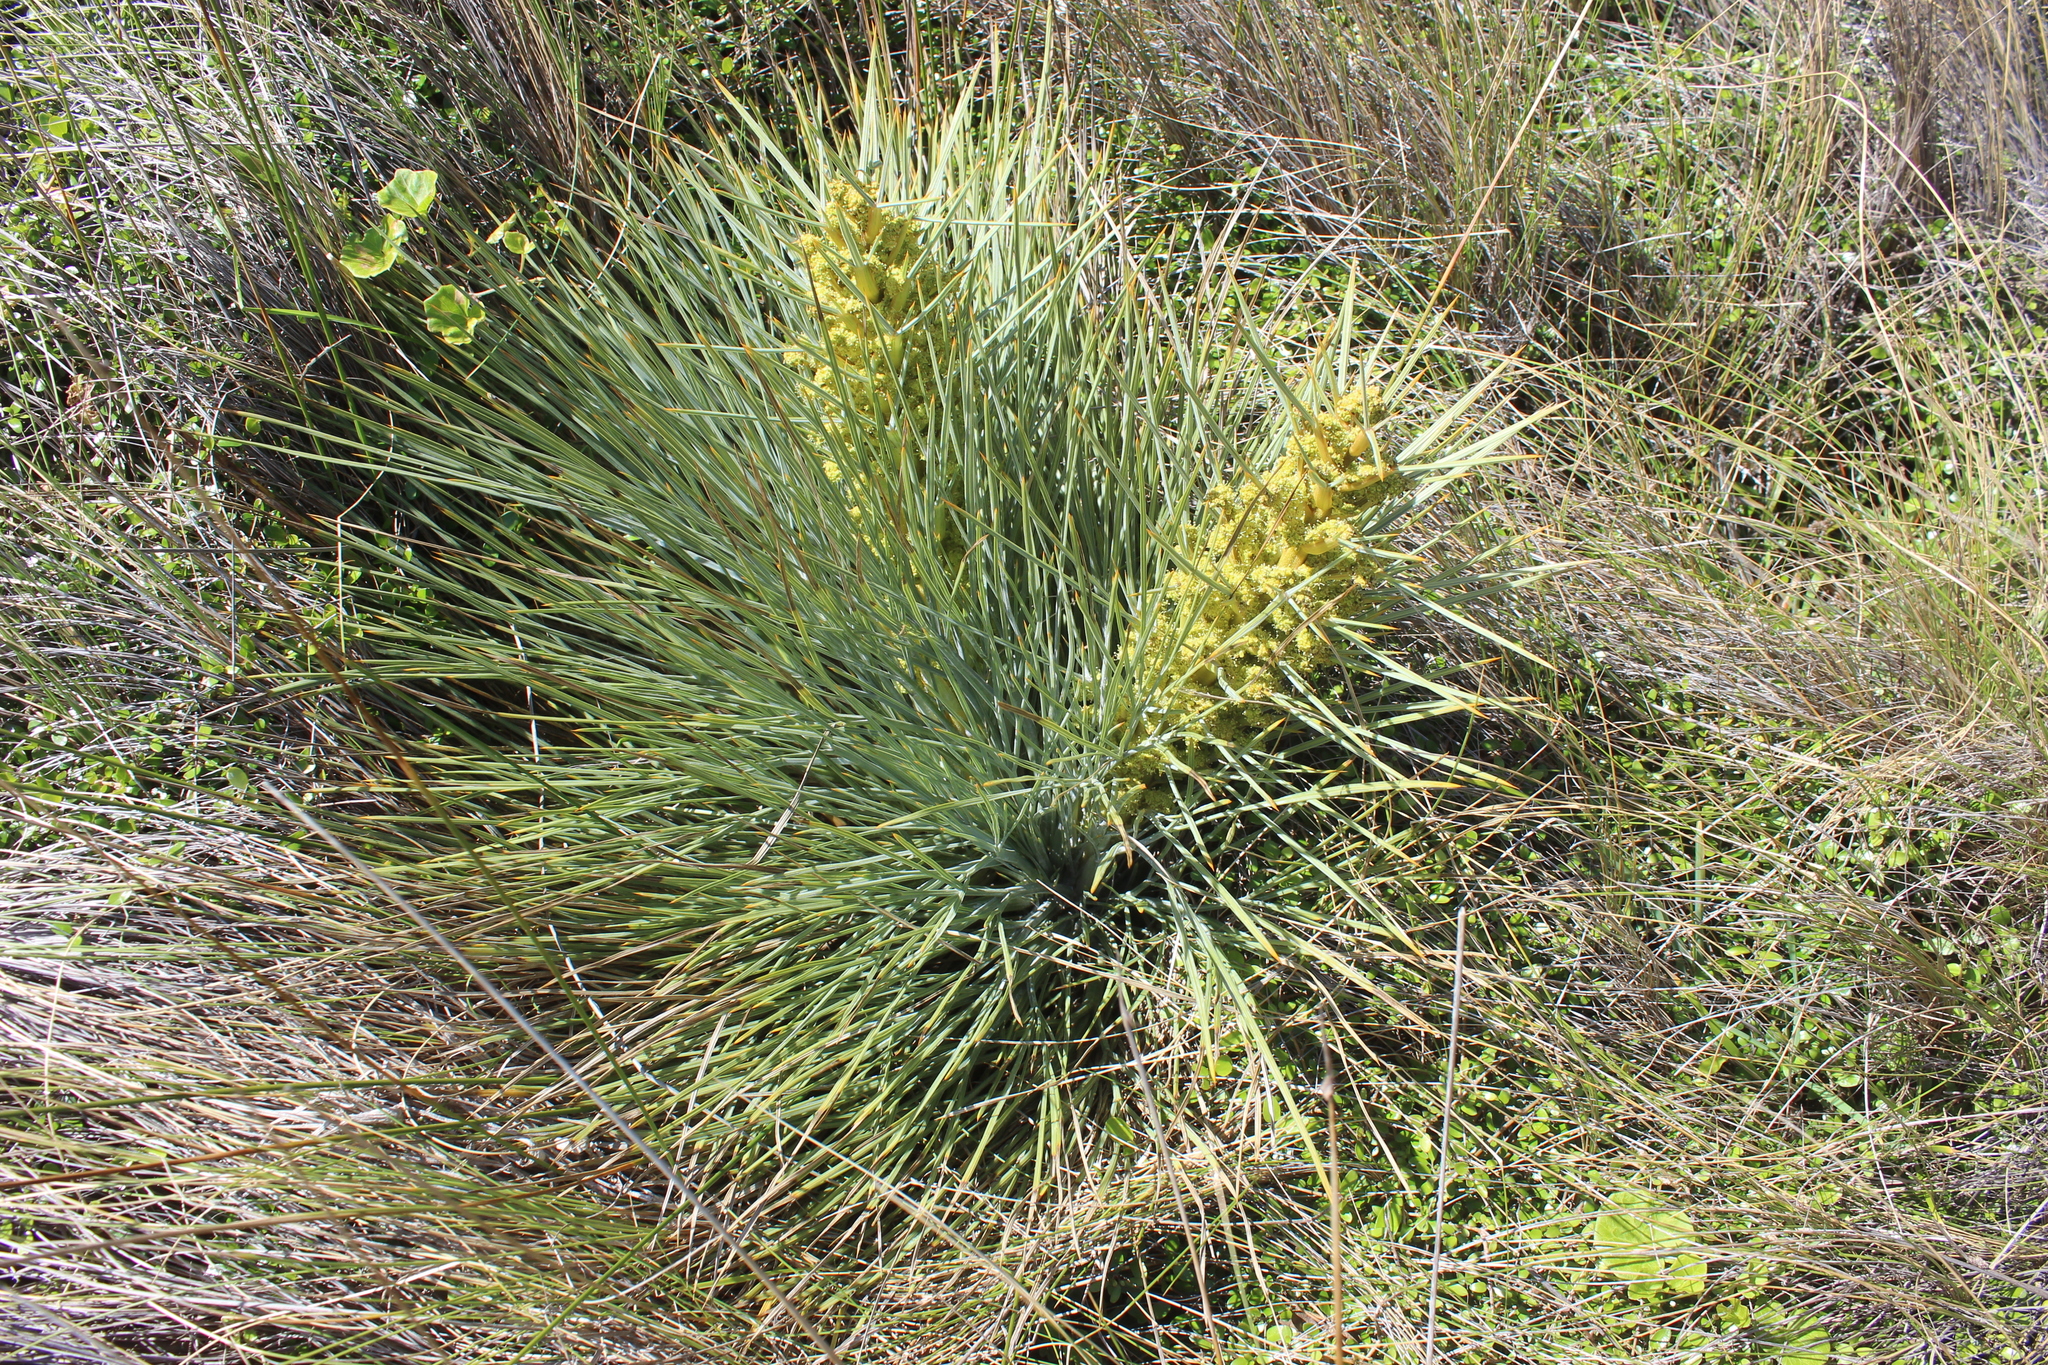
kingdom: Plantae
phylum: Tracheophyta
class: Magnoliopsida
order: Apiales
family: Apiaceae
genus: Aciphylla
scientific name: Aciphylla squarrosa
